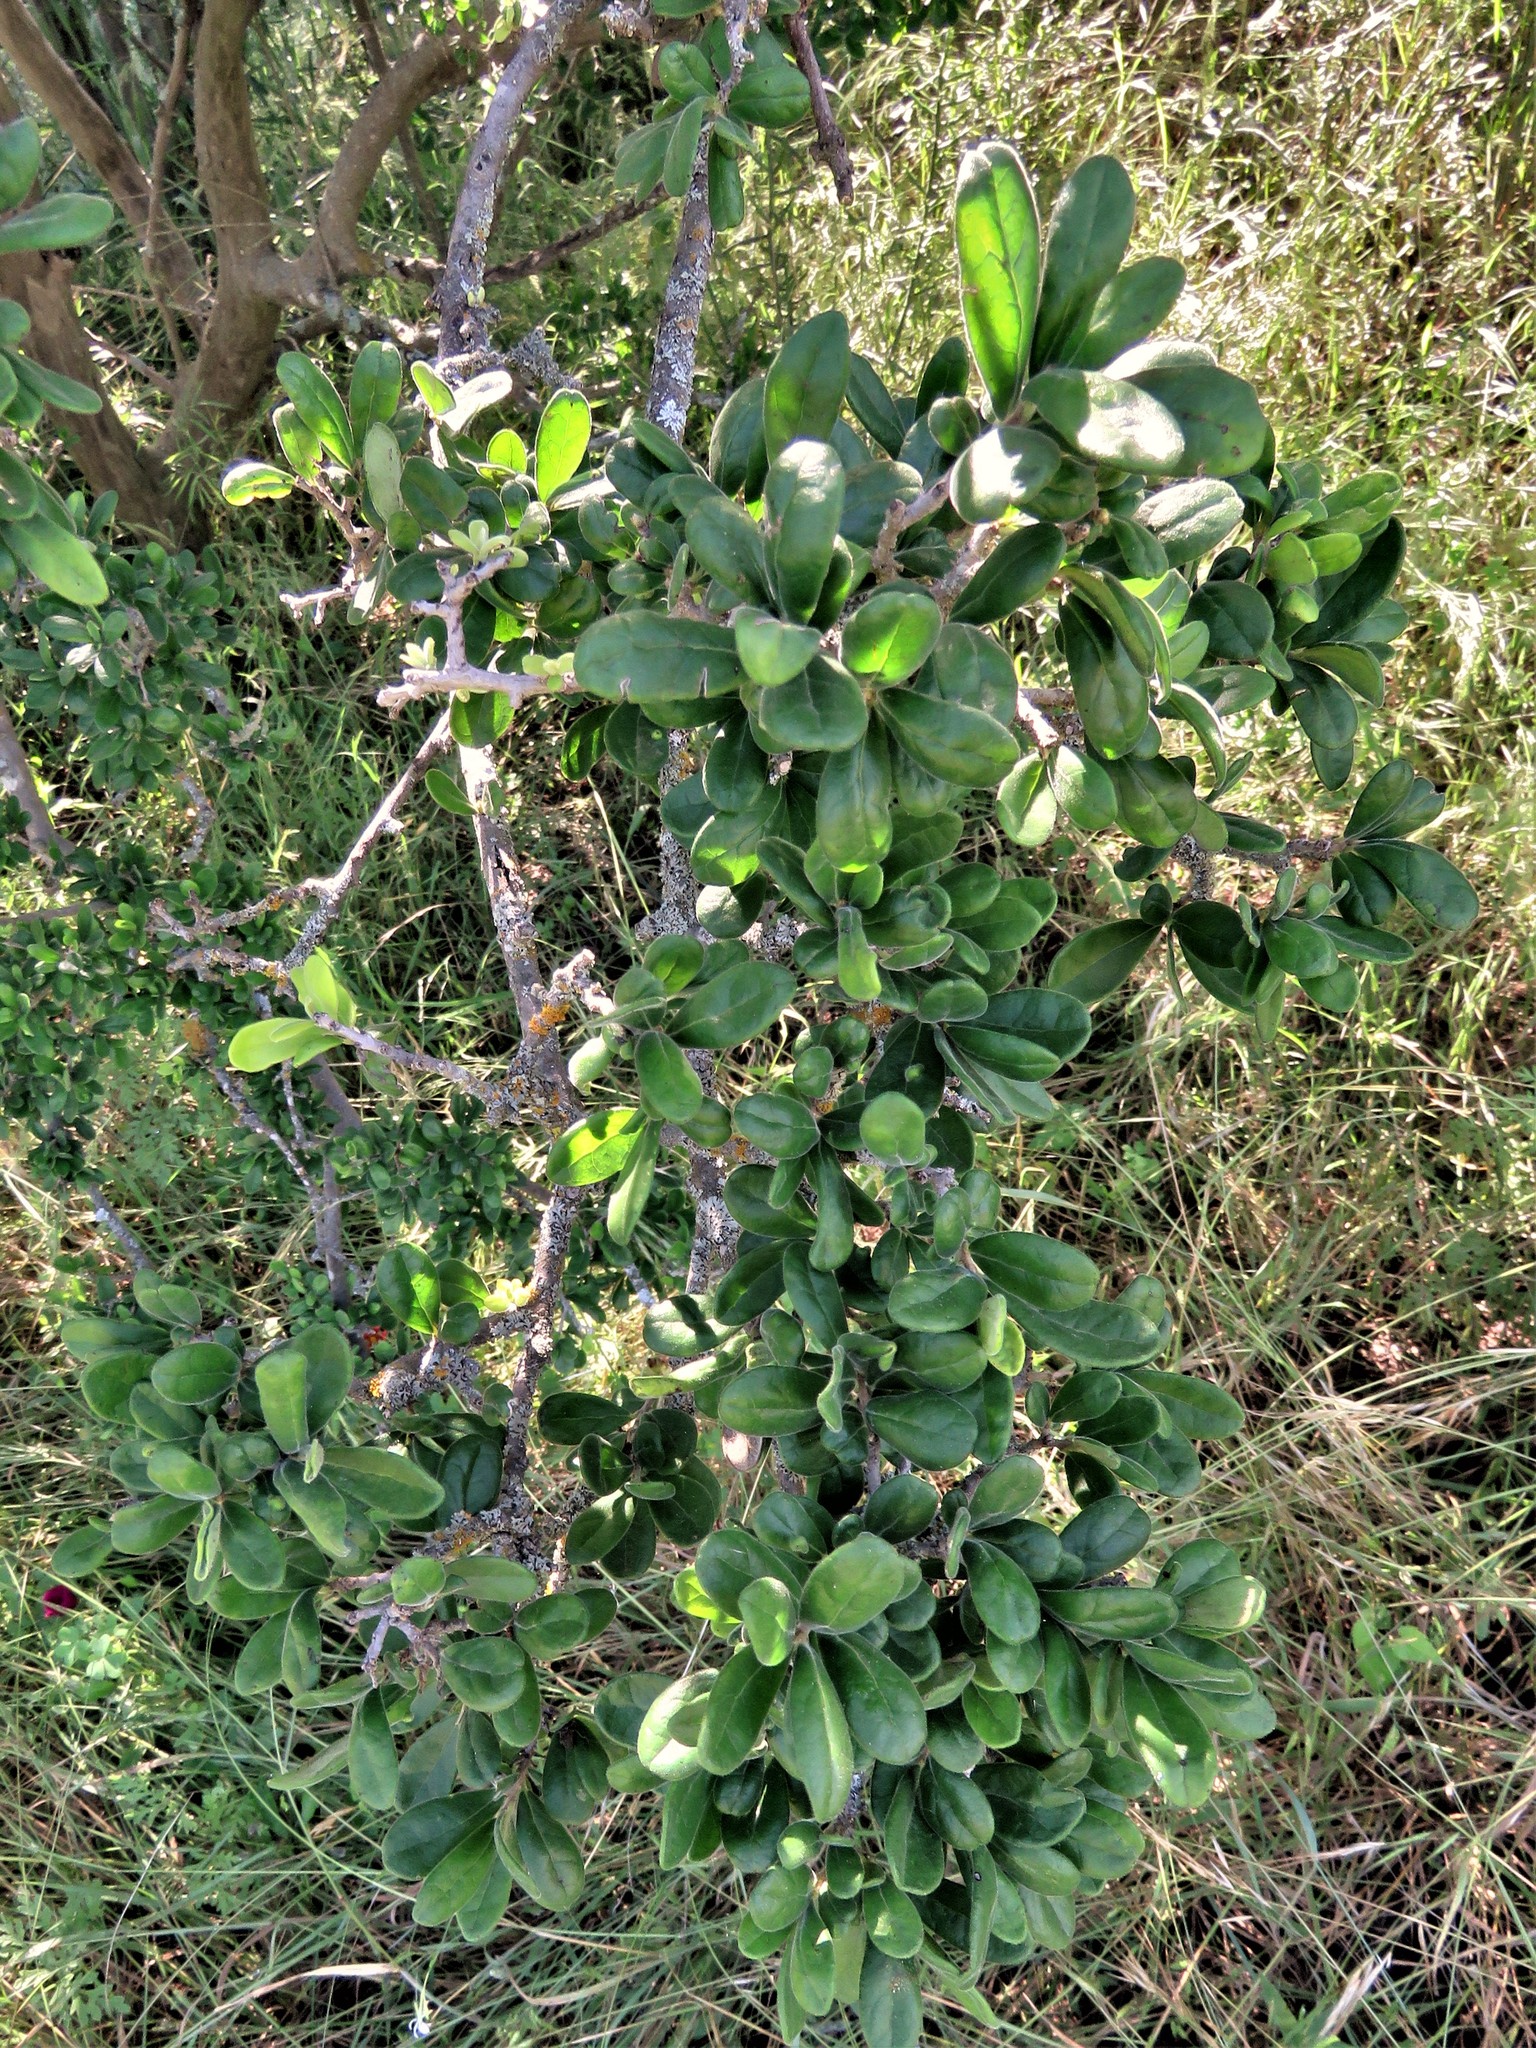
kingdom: Plantae
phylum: Tracheophyta
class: Magnoliopsida
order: Ericales
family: Ebenaceae
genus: Diospyros
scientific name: Diospyros texana
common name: Texas persimmon
